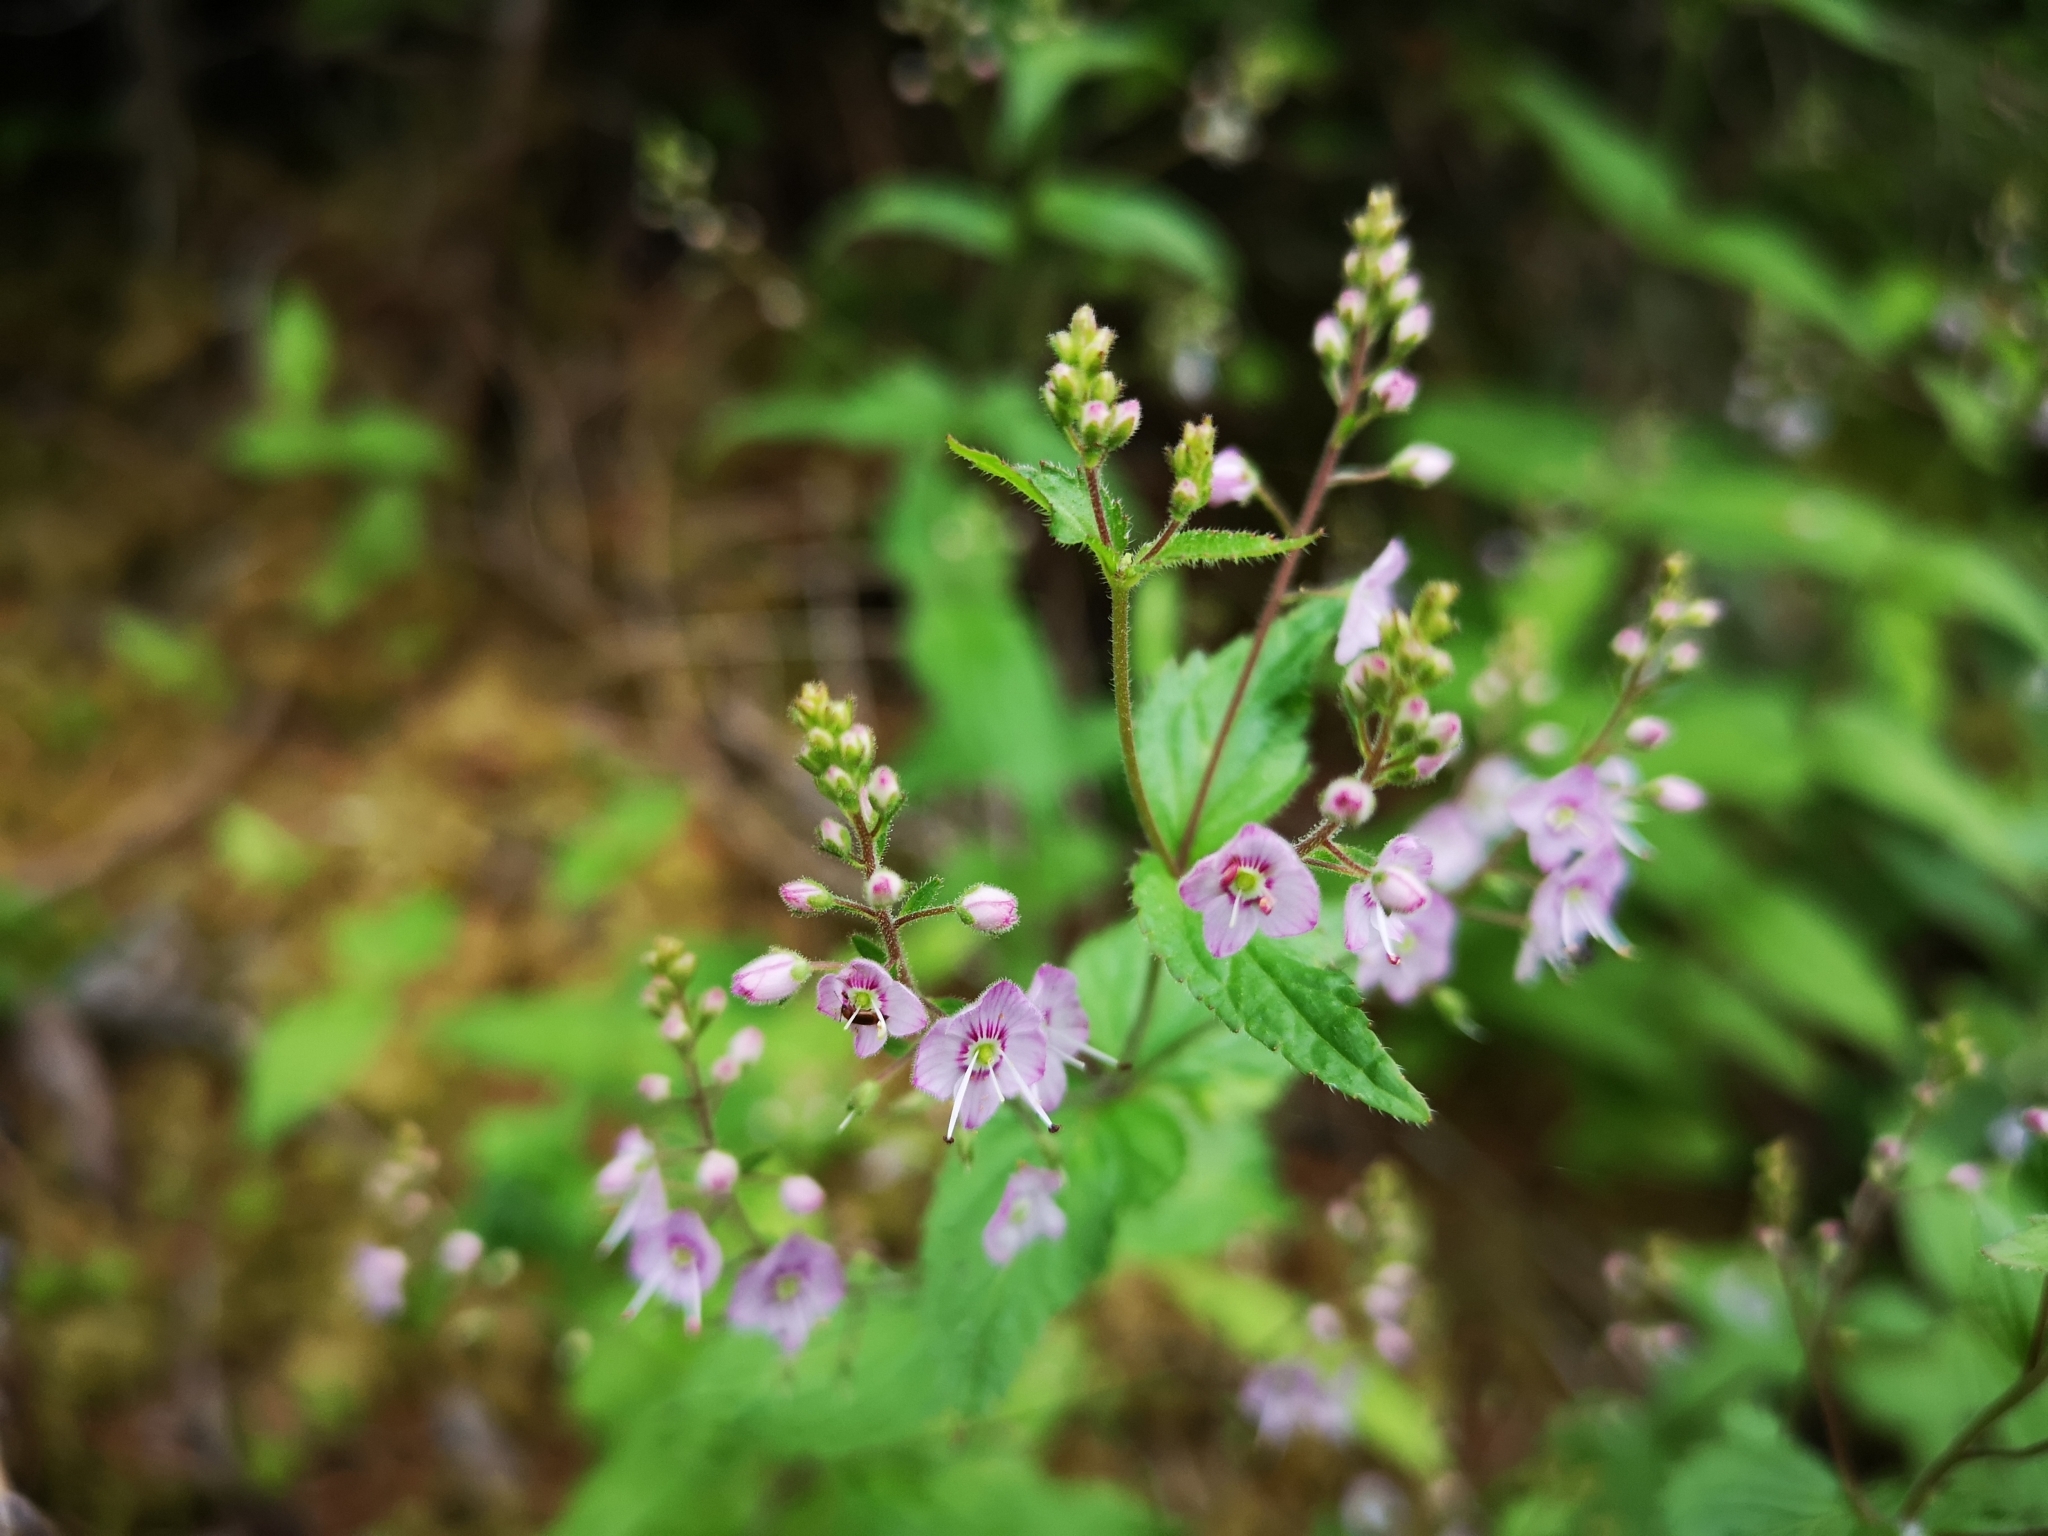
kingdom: Plantae
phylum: Tracheophyta
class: Magnoliopsida
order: Lamiales
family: Plantaginaceae
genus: Veronica
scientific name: Veronica urticifolia
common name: Nettle-leaf speedwell
